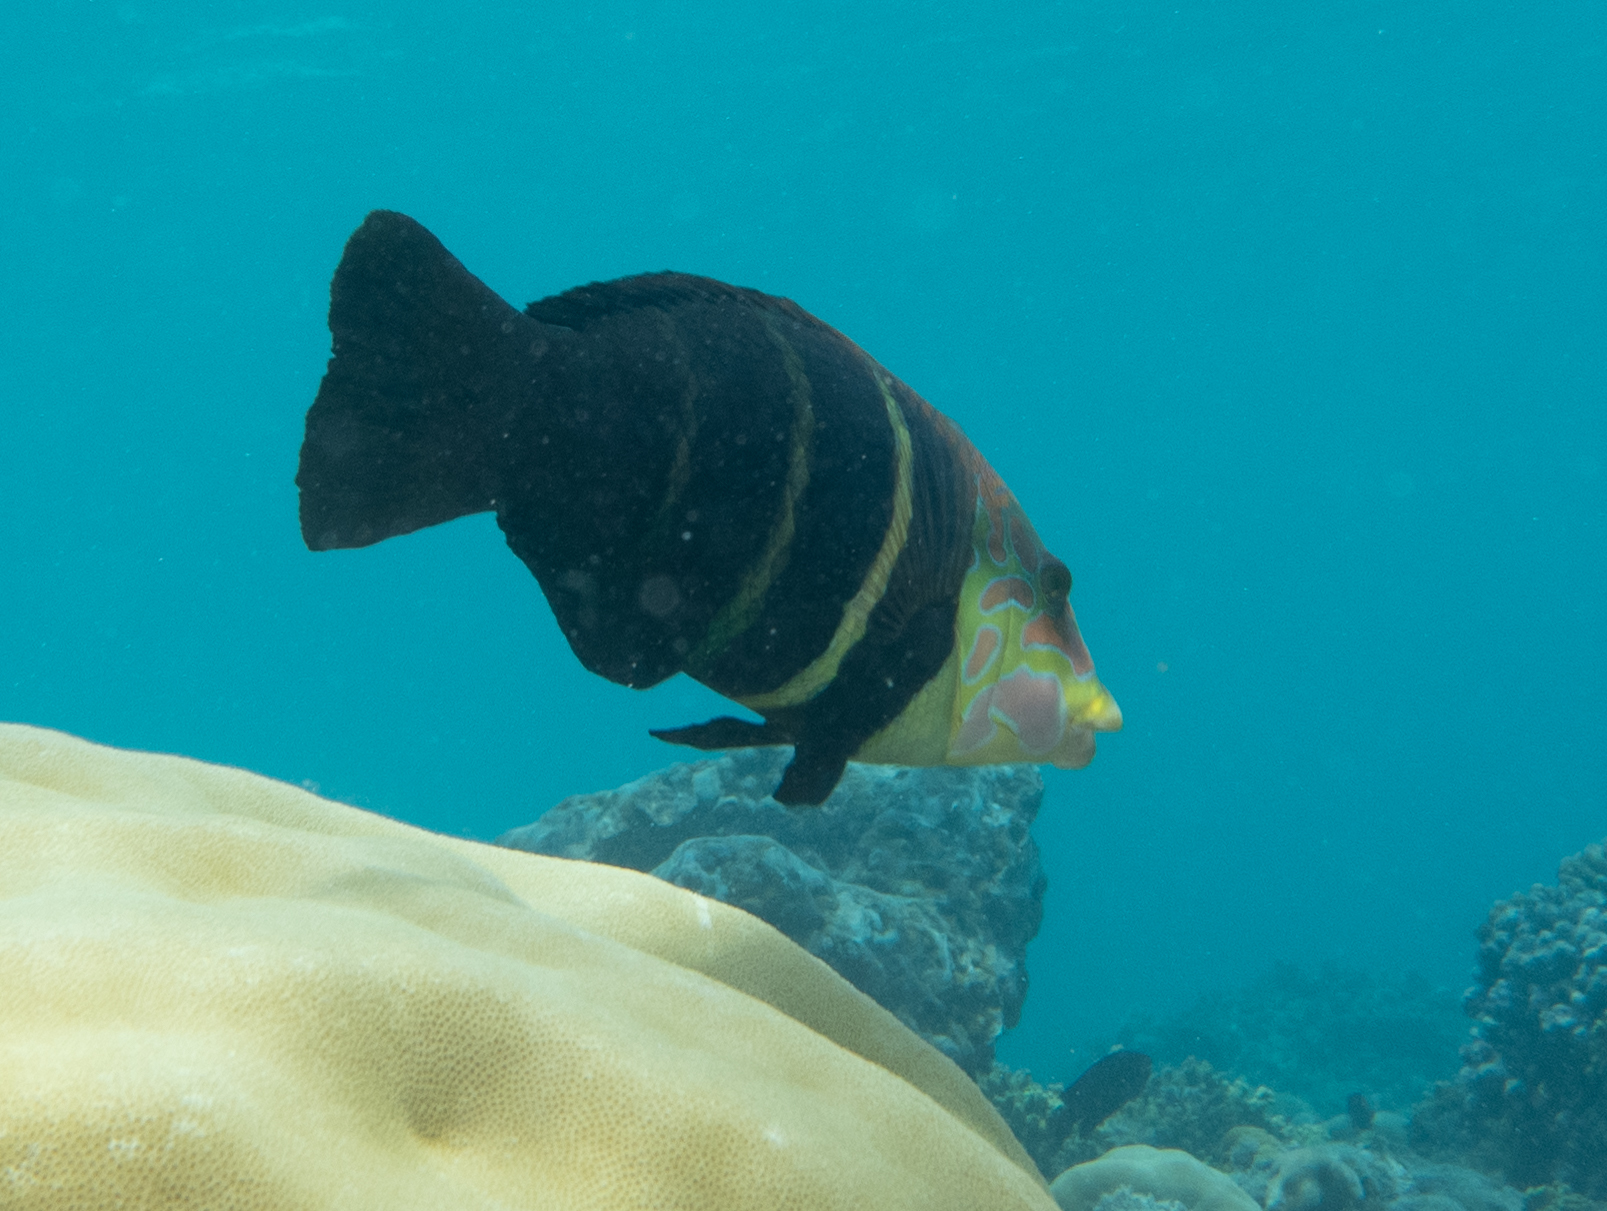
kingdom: Animalia
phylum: Chordata
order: Perciformes
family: Labridae
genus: Hemigymnus
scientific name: Hemigymnus fasciatus
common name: Barred thicklip
